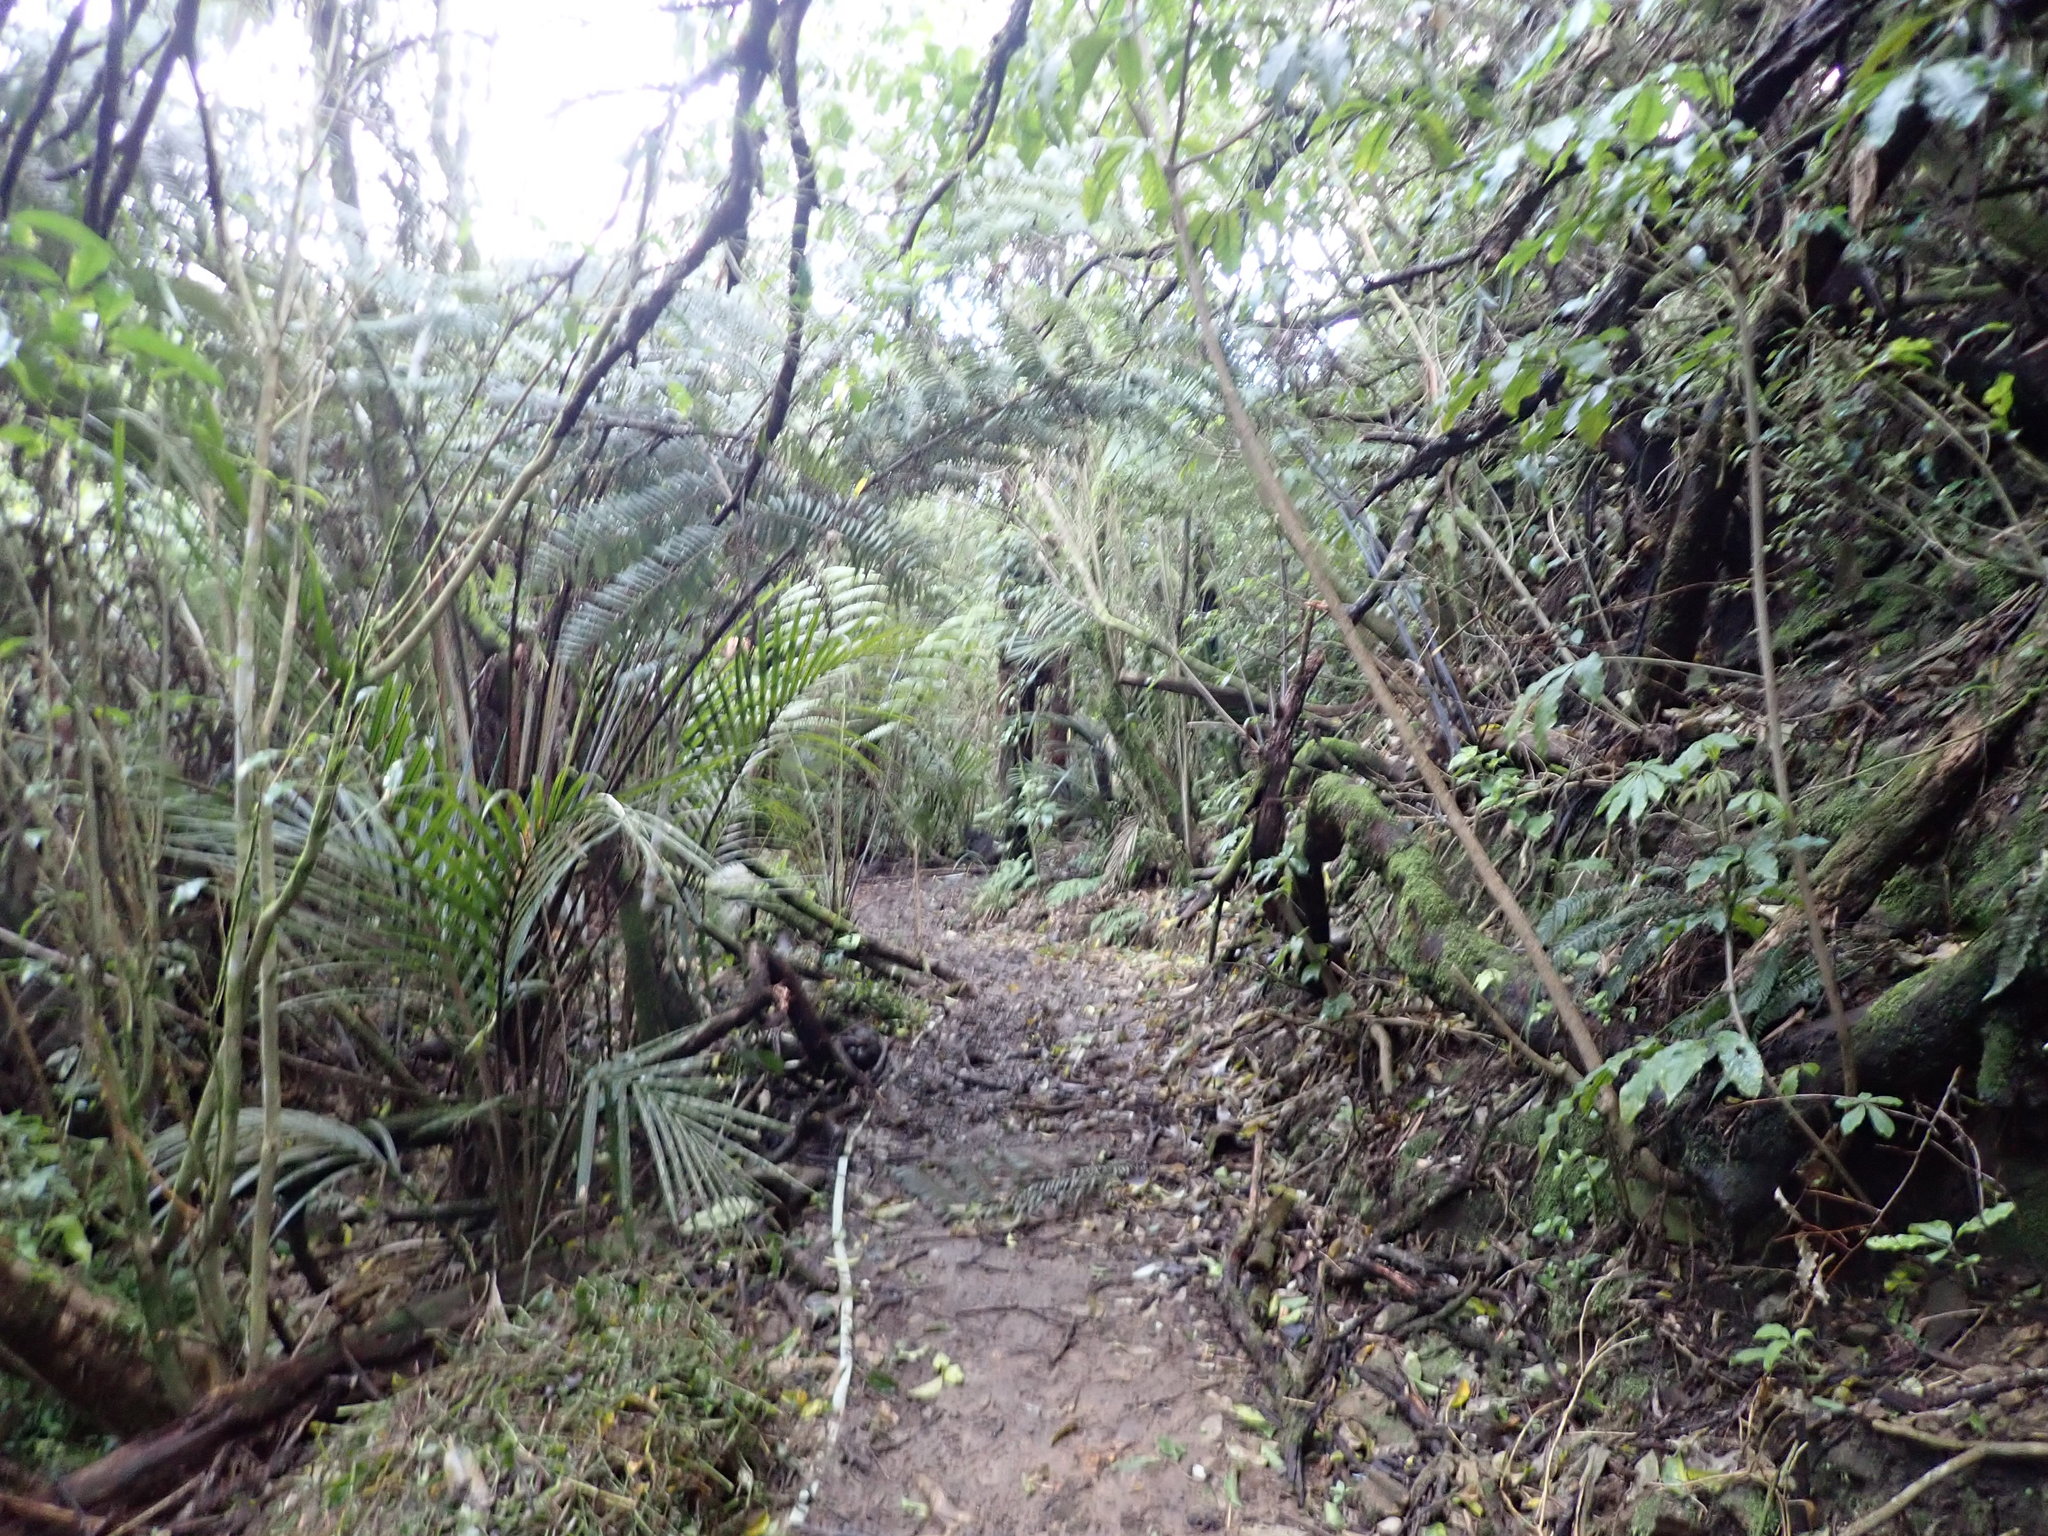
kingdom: Plantae
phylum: Tracheophyta
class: Magnoliopsida
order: Apiales
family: Araliaceae
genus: Schefflera
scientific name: Schefflera digitata
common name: Pate
